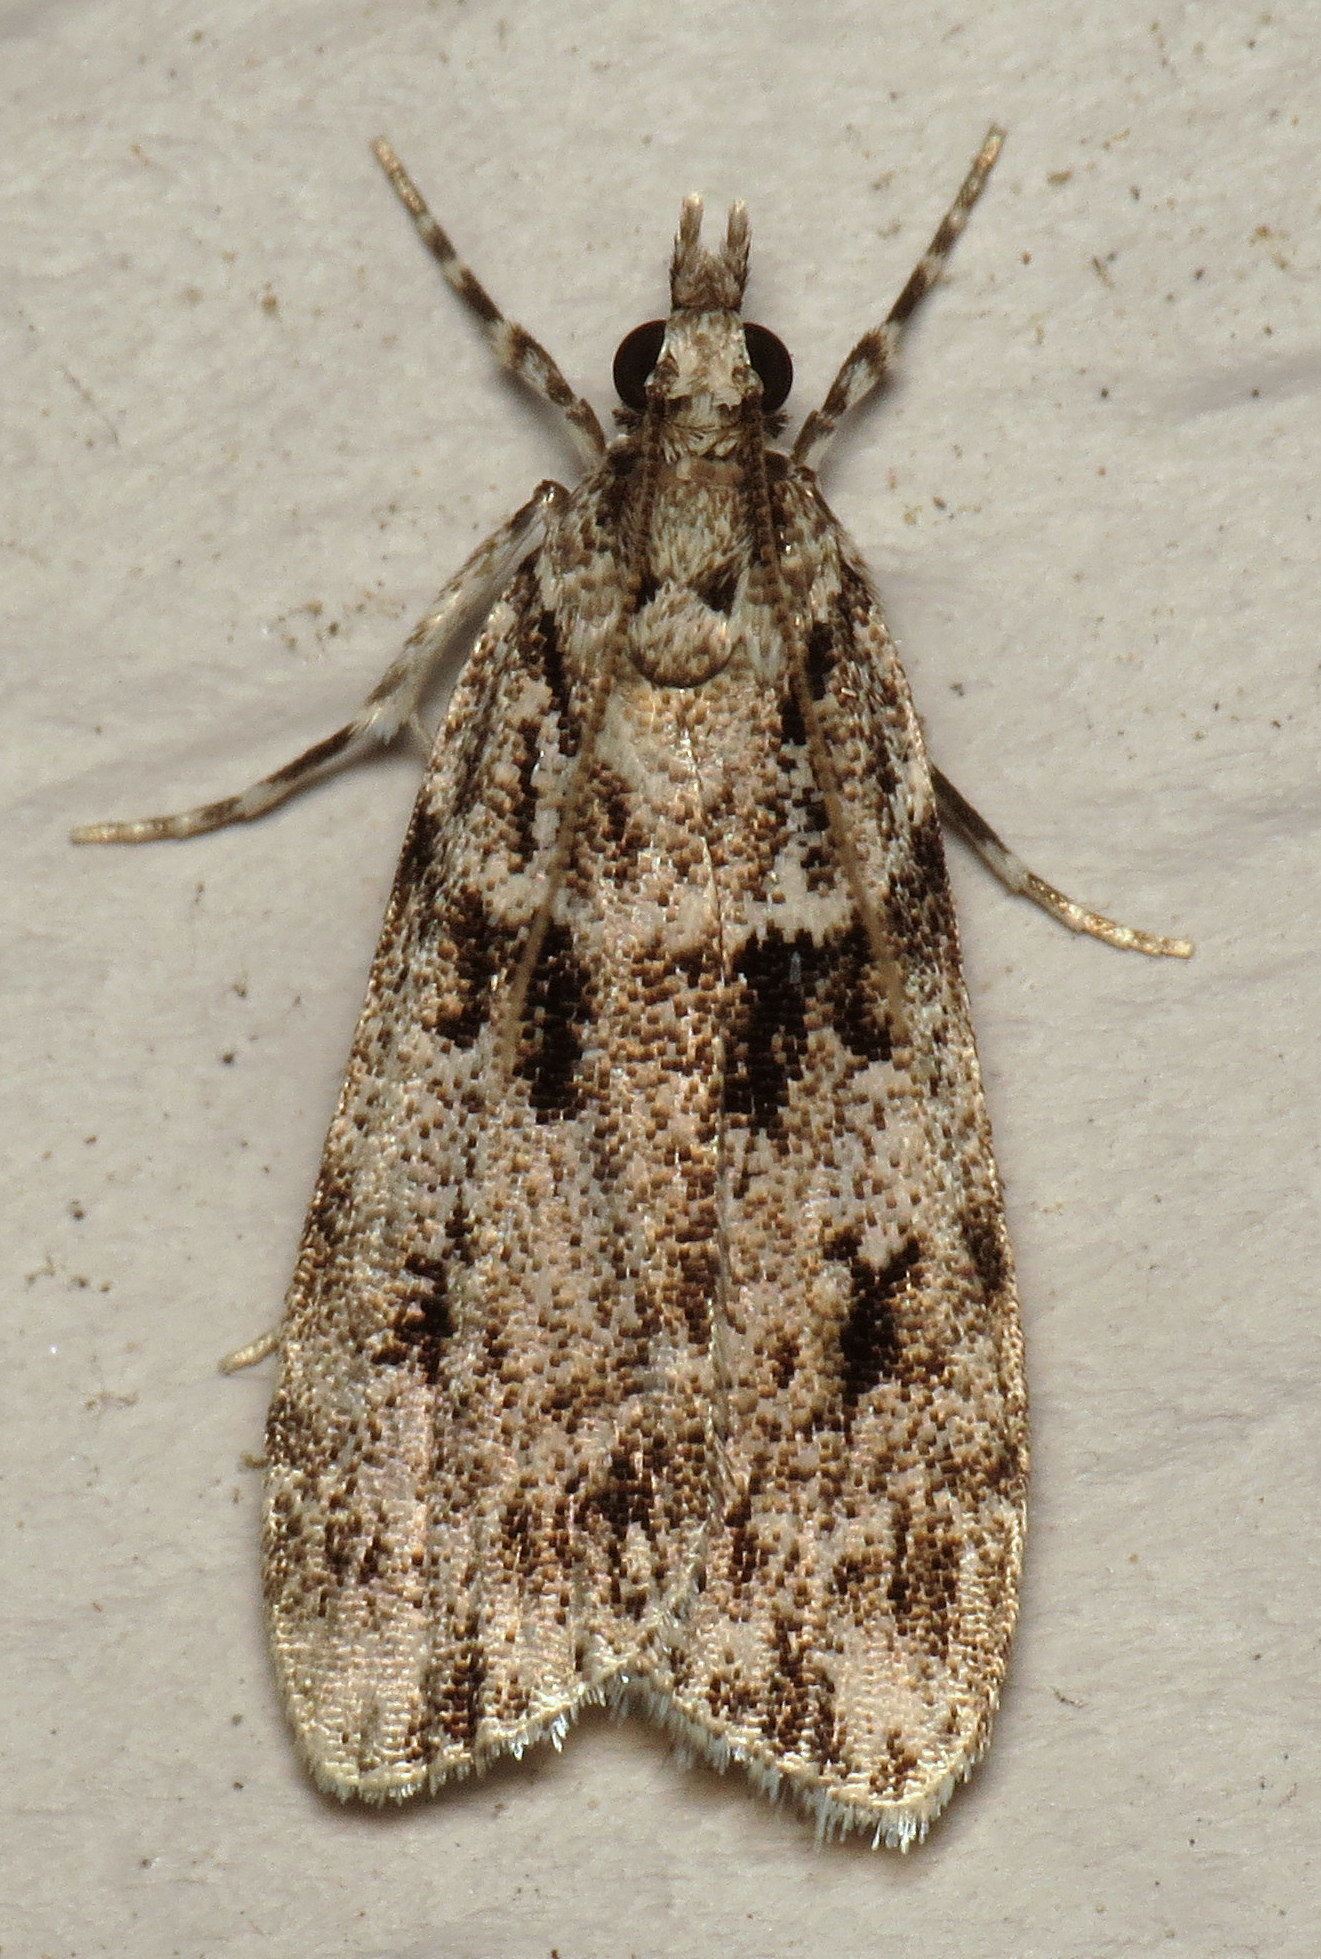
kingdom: Animalia
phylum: Arthropoda
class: Insecta
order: Lepidoptera
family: Crambidae
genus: Scoparia
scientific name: Scoparia biplagialis
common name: Double-striped scoparia moth
